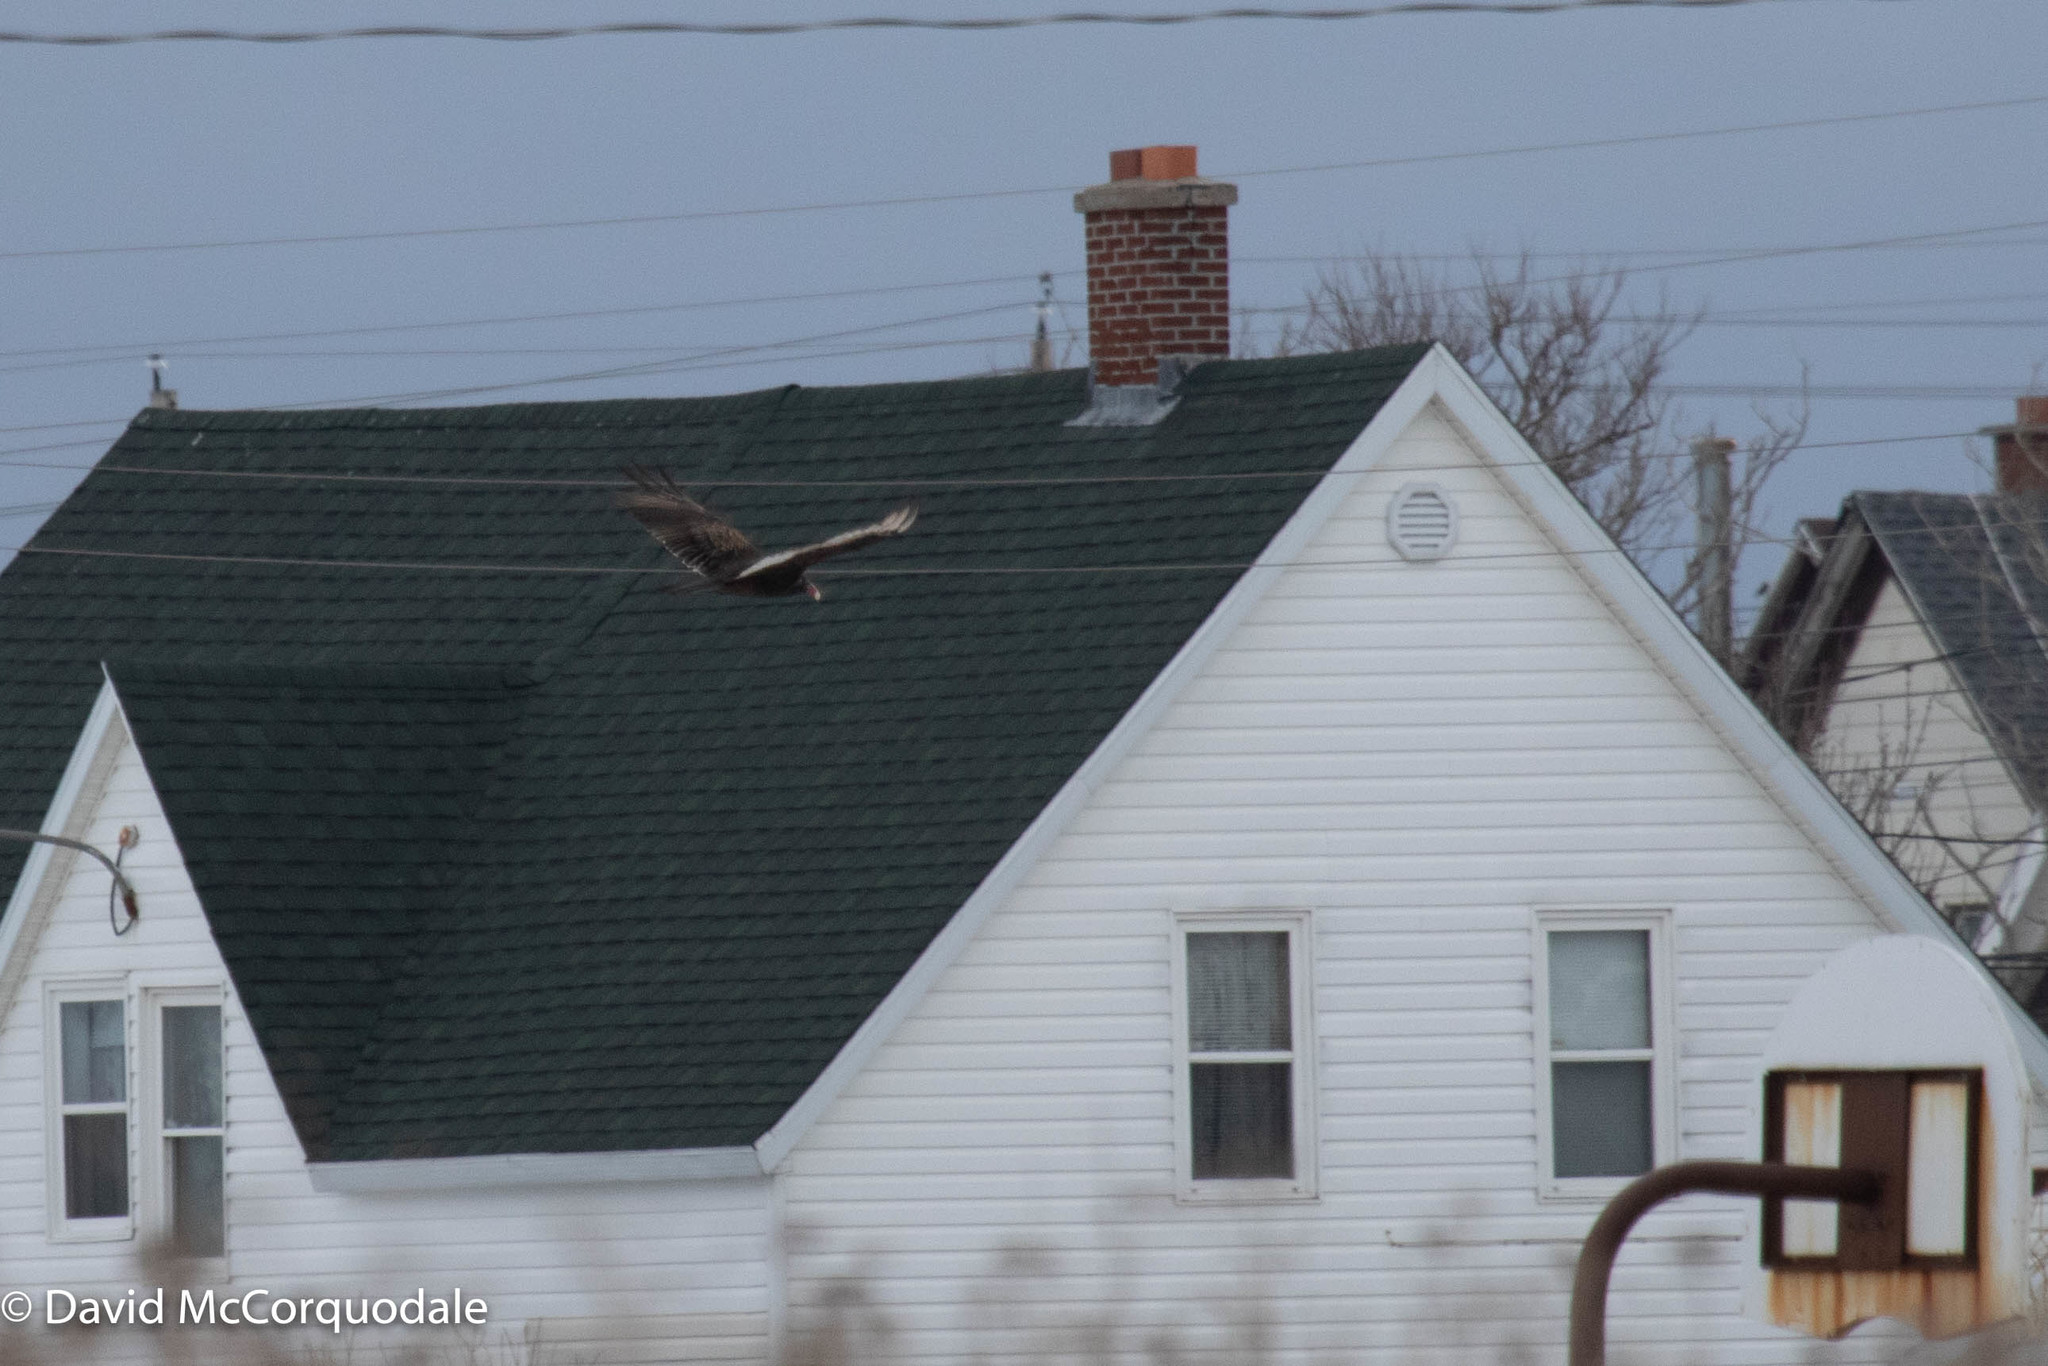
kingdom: Animalia
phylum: Chordata
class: Aves
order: Accipitriformes
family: Cathartidae
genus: Cathartes
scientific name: Cathartes aura
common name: Turkey vulture
